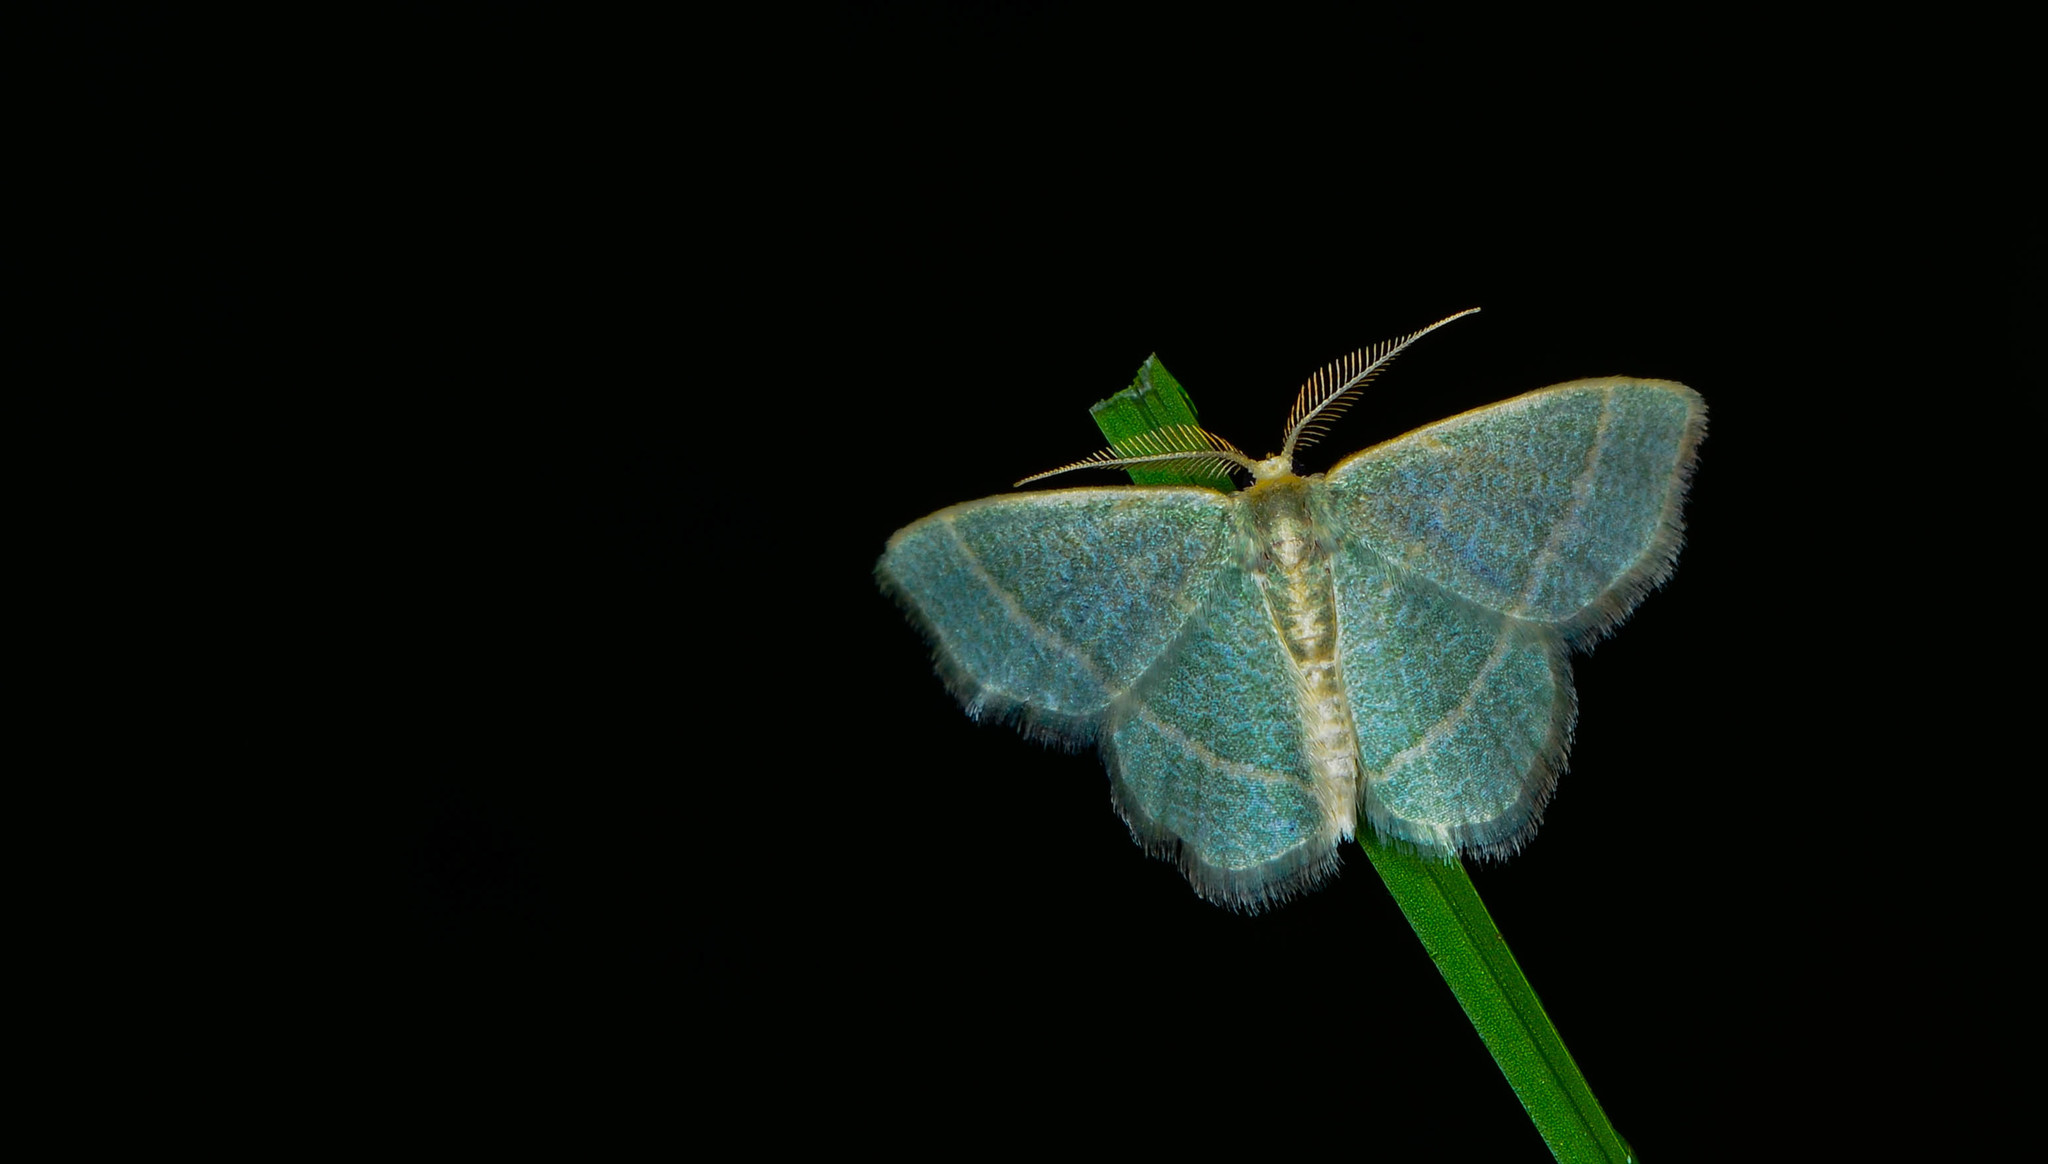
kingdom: Animalia
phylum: Arthropoda
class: Insecta
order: Lepidoptera
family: Geometridae
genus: Chlorochlamys
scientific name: Chlorochlamys chloroleucaria
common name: Blackberry looper
